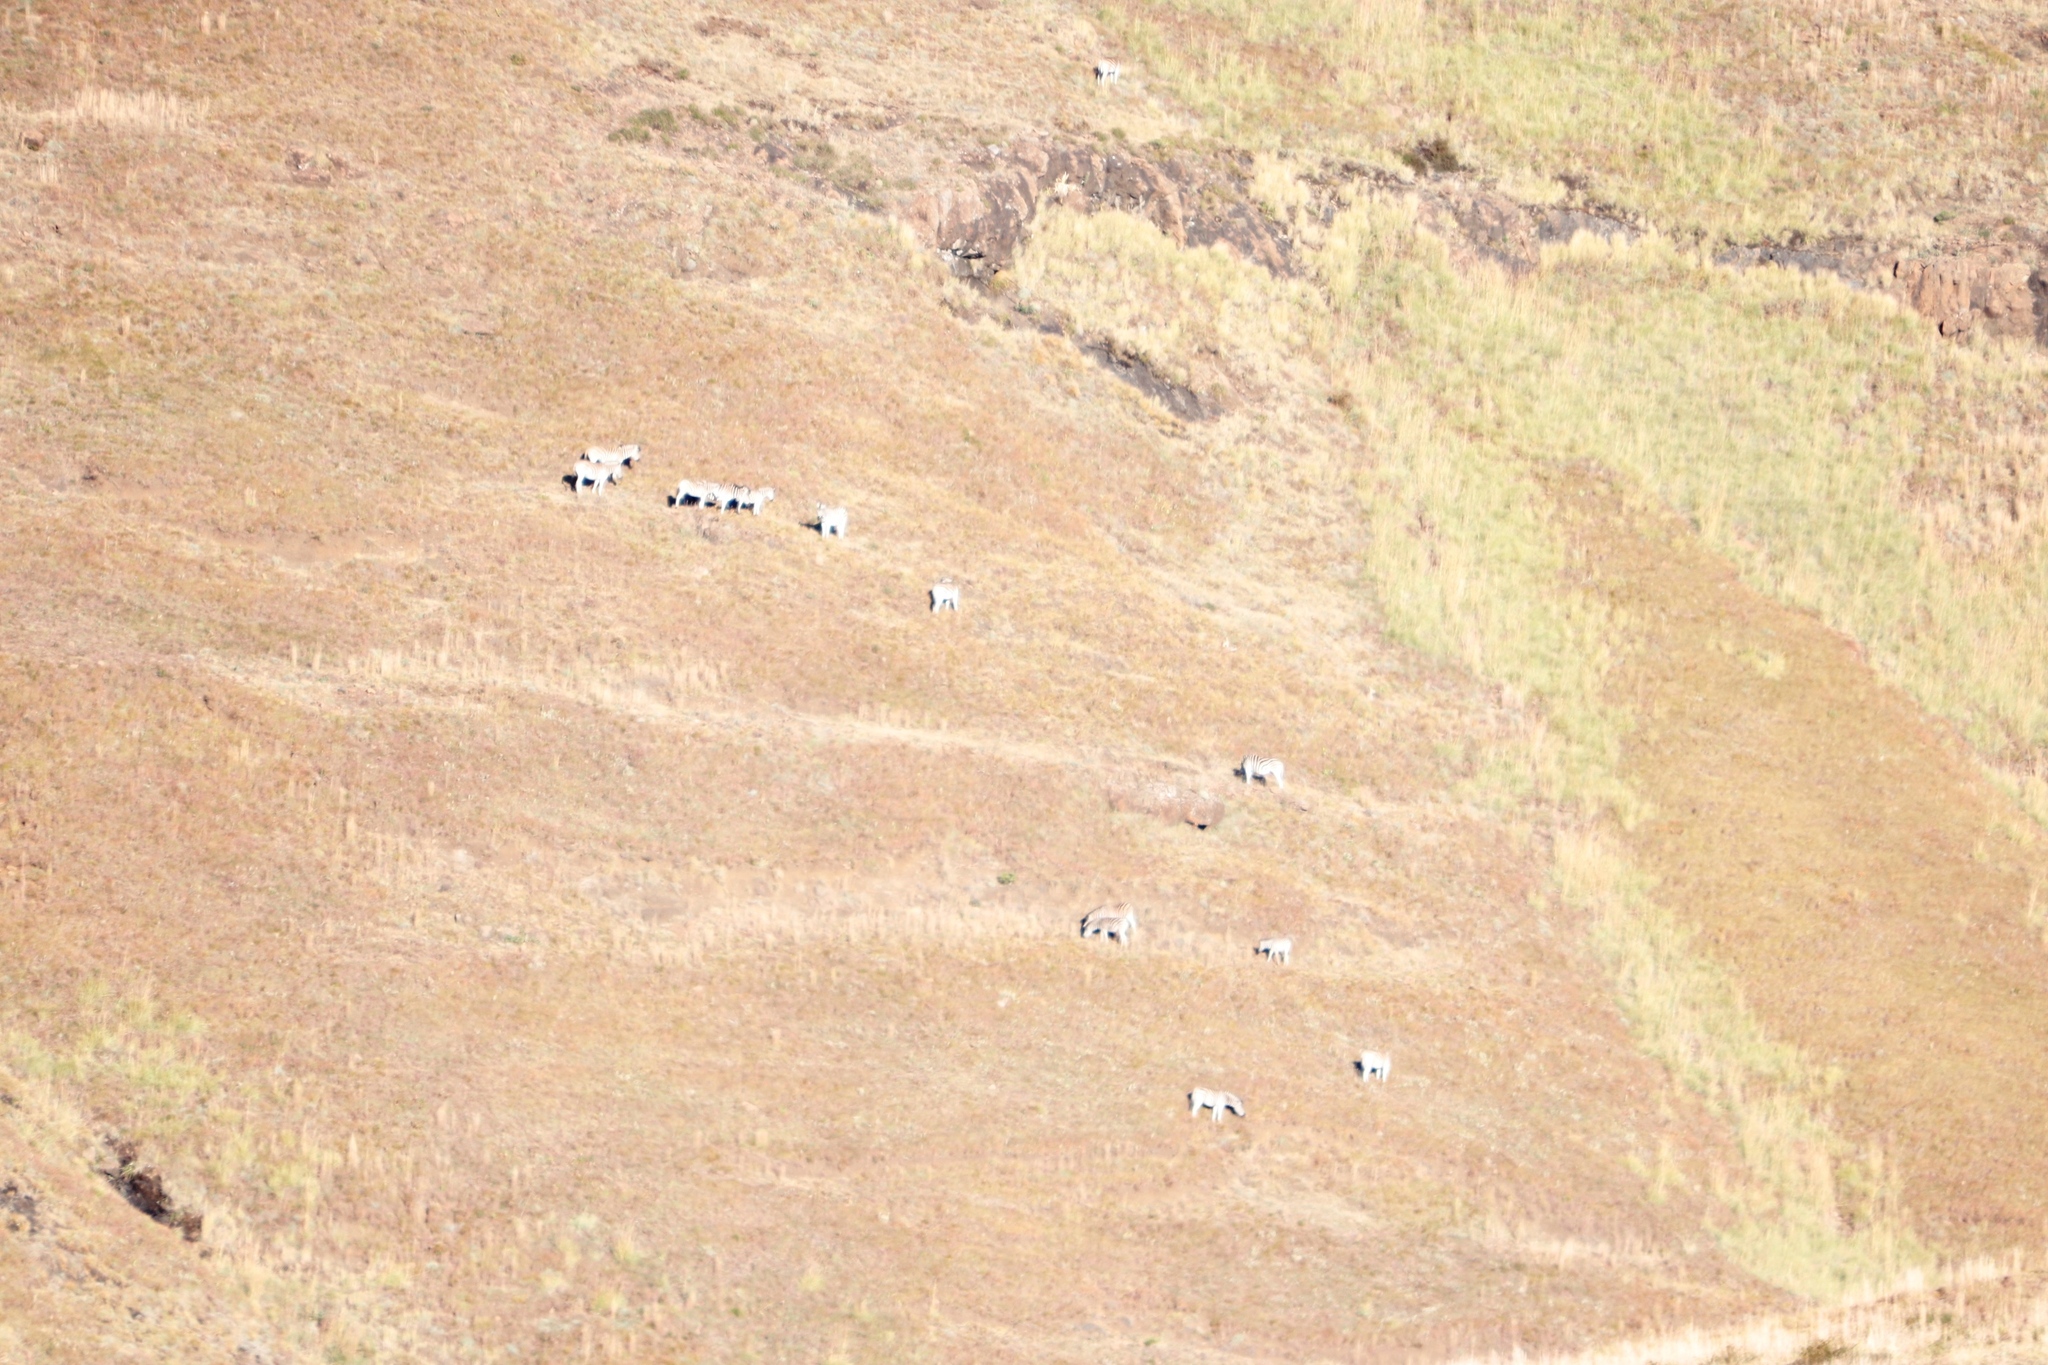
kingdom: Animalia
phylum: Chordata
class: Mammalia
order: Perissodactyla
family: Equidae
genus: Equus
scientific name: Equus quagga
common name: Plains zebra
